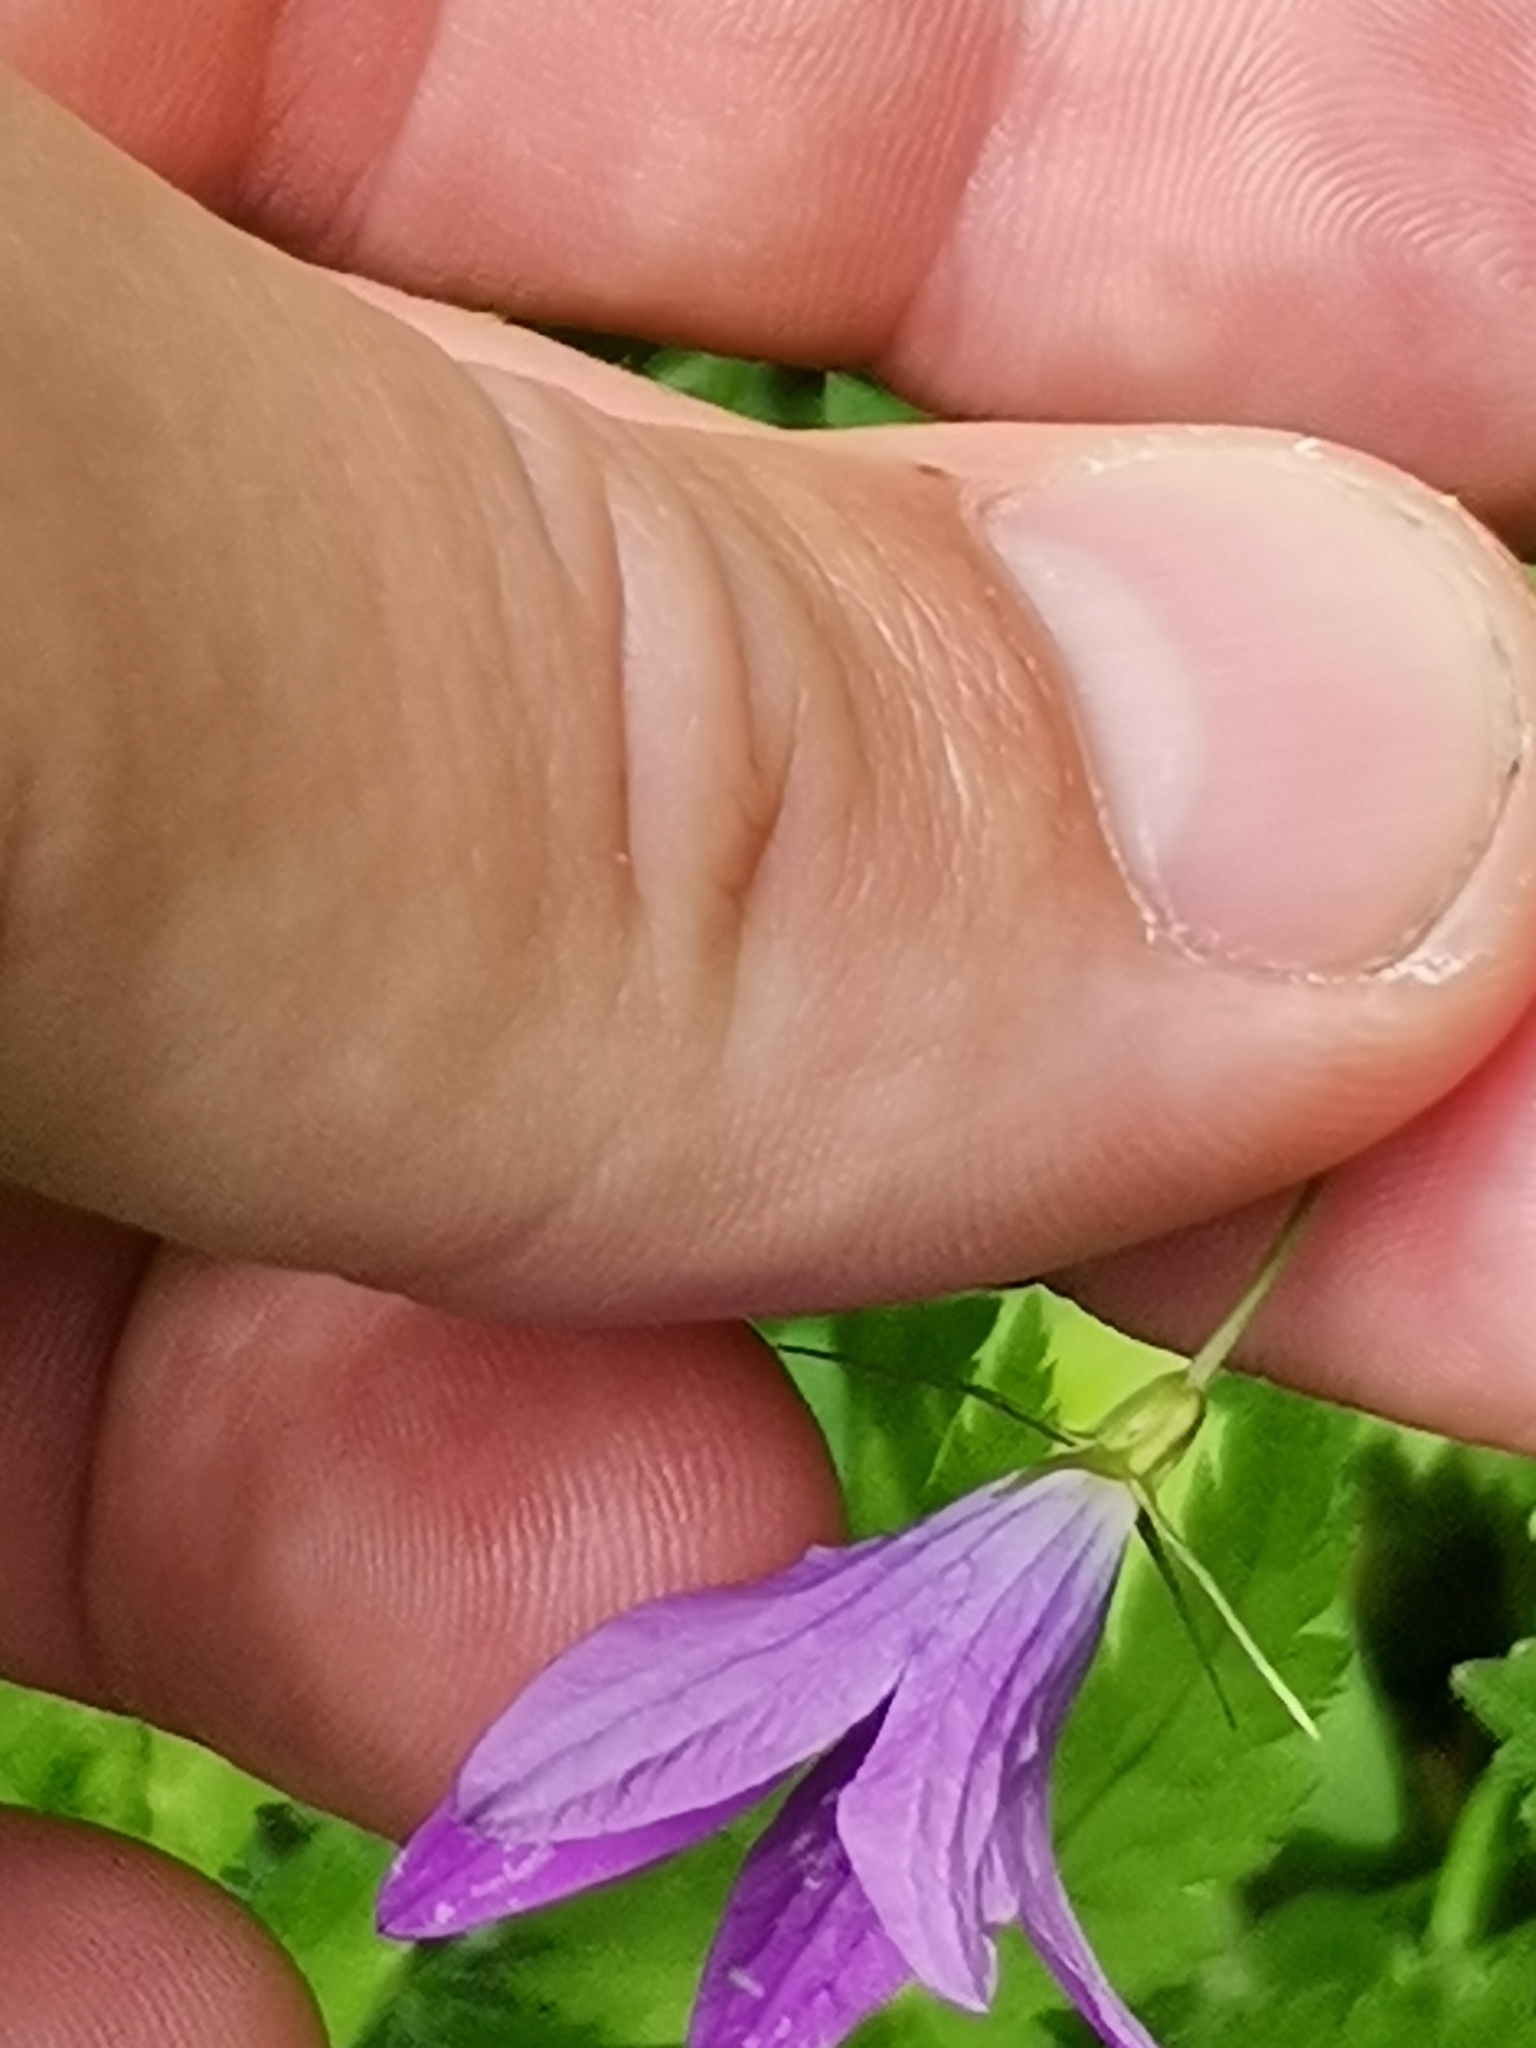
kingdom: Plantae
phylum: Tracheophyta
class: Magnoliopsida
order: Asterales
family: Campanulaceae
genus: Campanula
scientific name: Campanula patula
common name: Spreading bellflower
